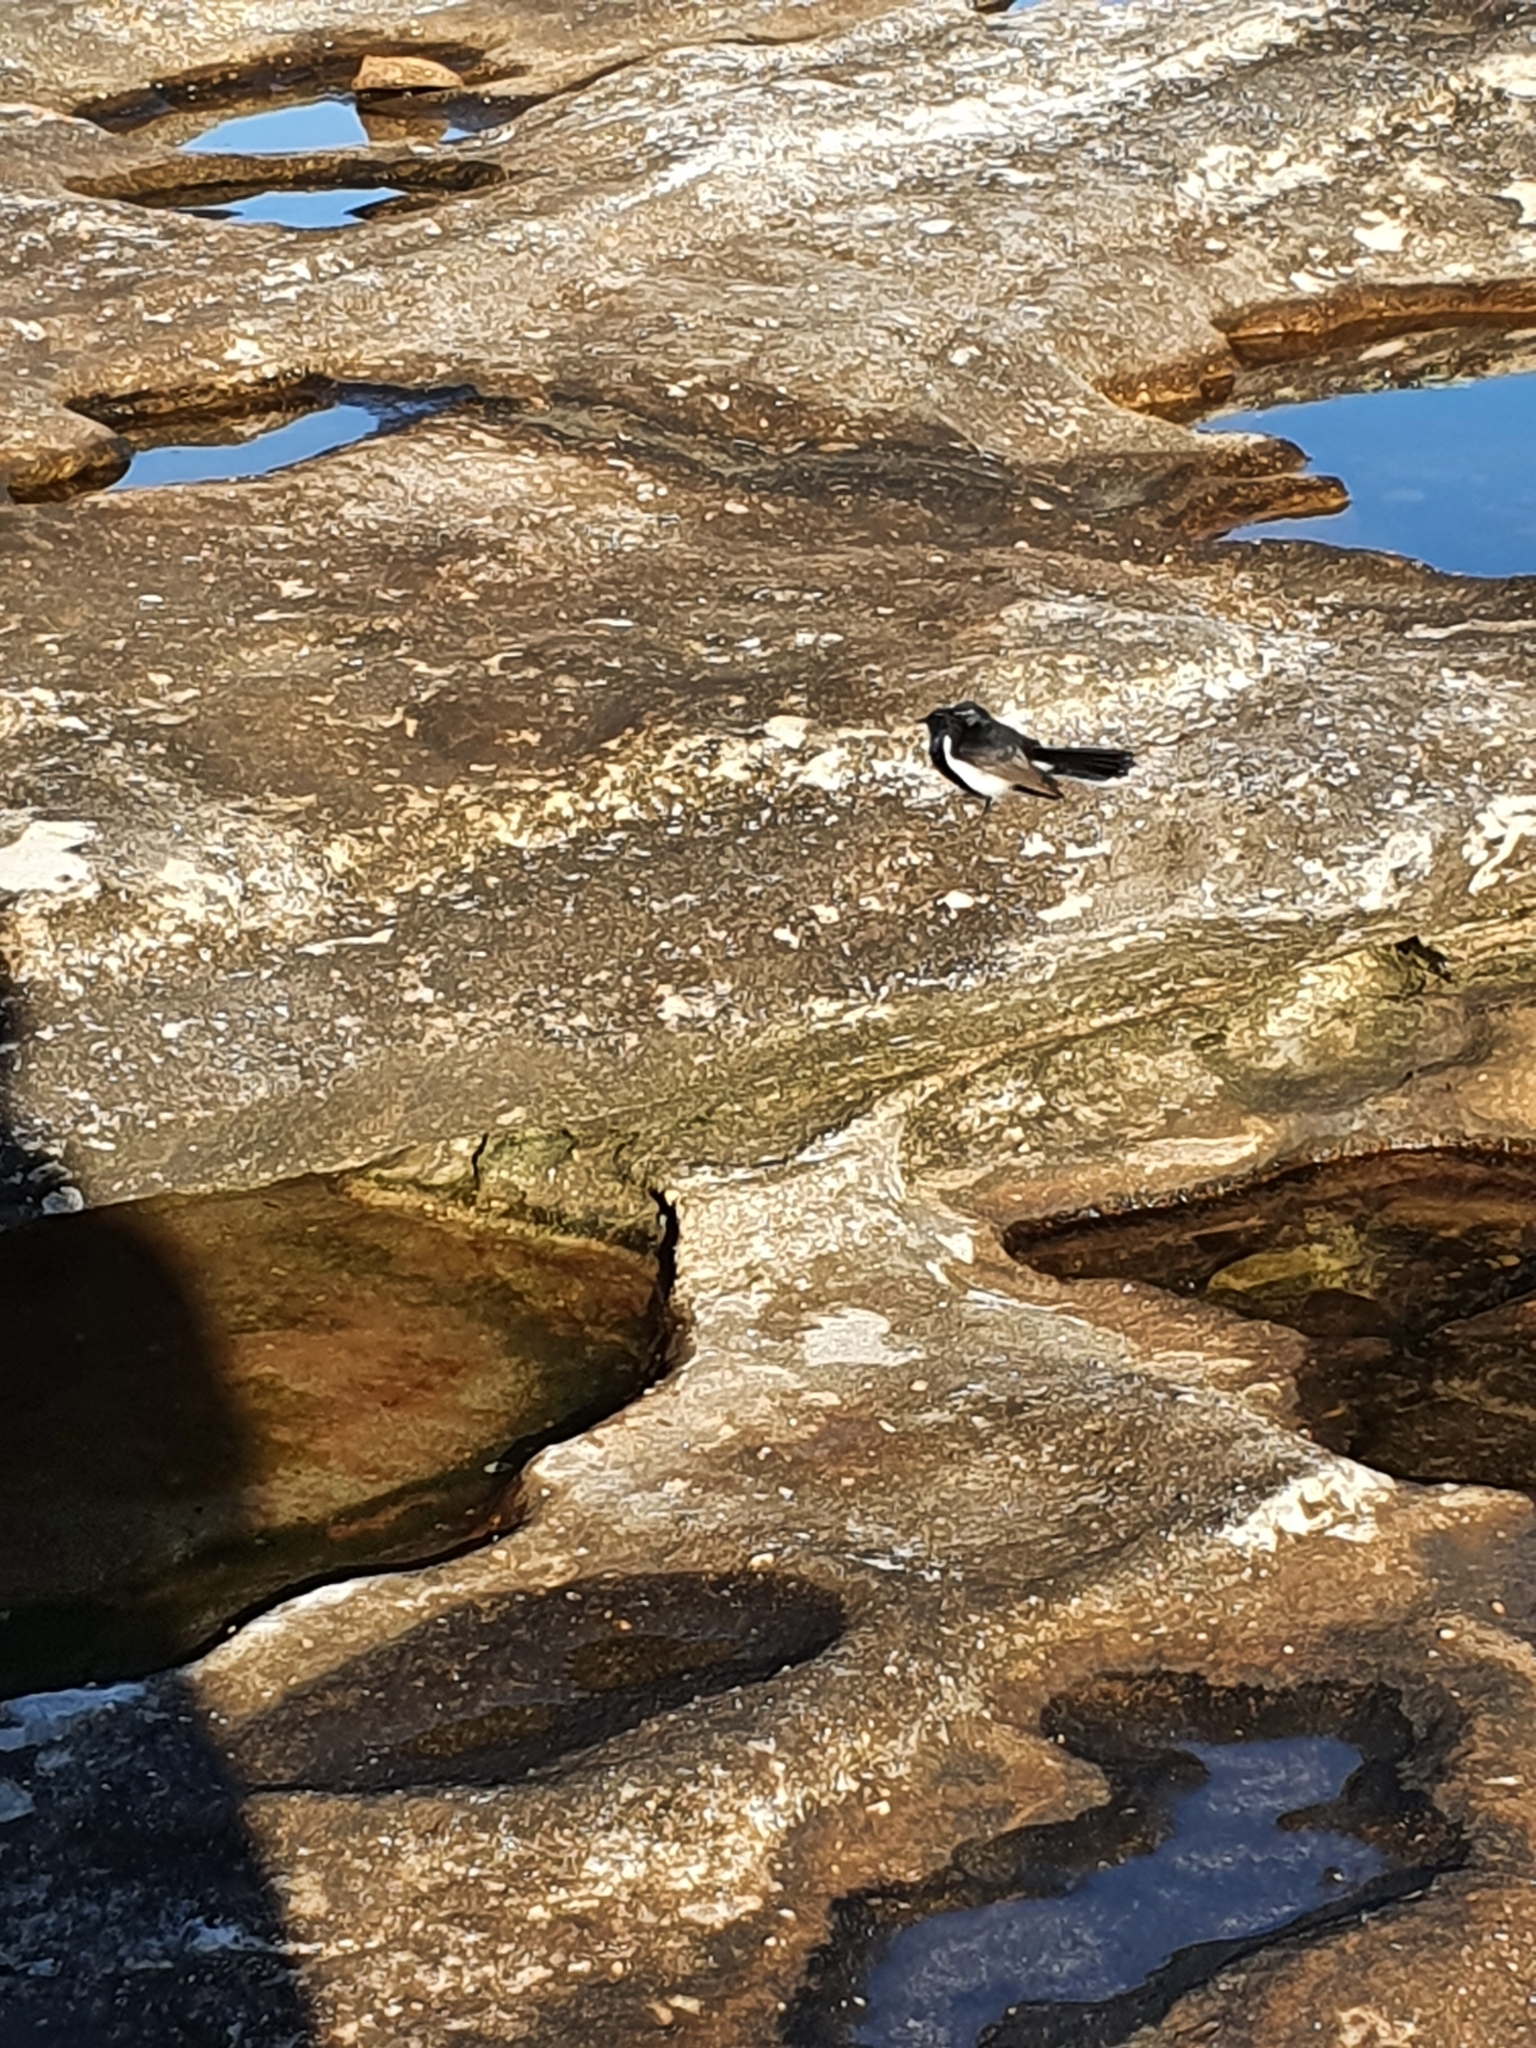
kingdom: Animalia
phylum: Chordata
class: Aves
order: Passeriformes
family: Rhipiduridae
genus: Rhipidura
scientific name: Rhipidura leucophrys
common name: Willie wagtail
